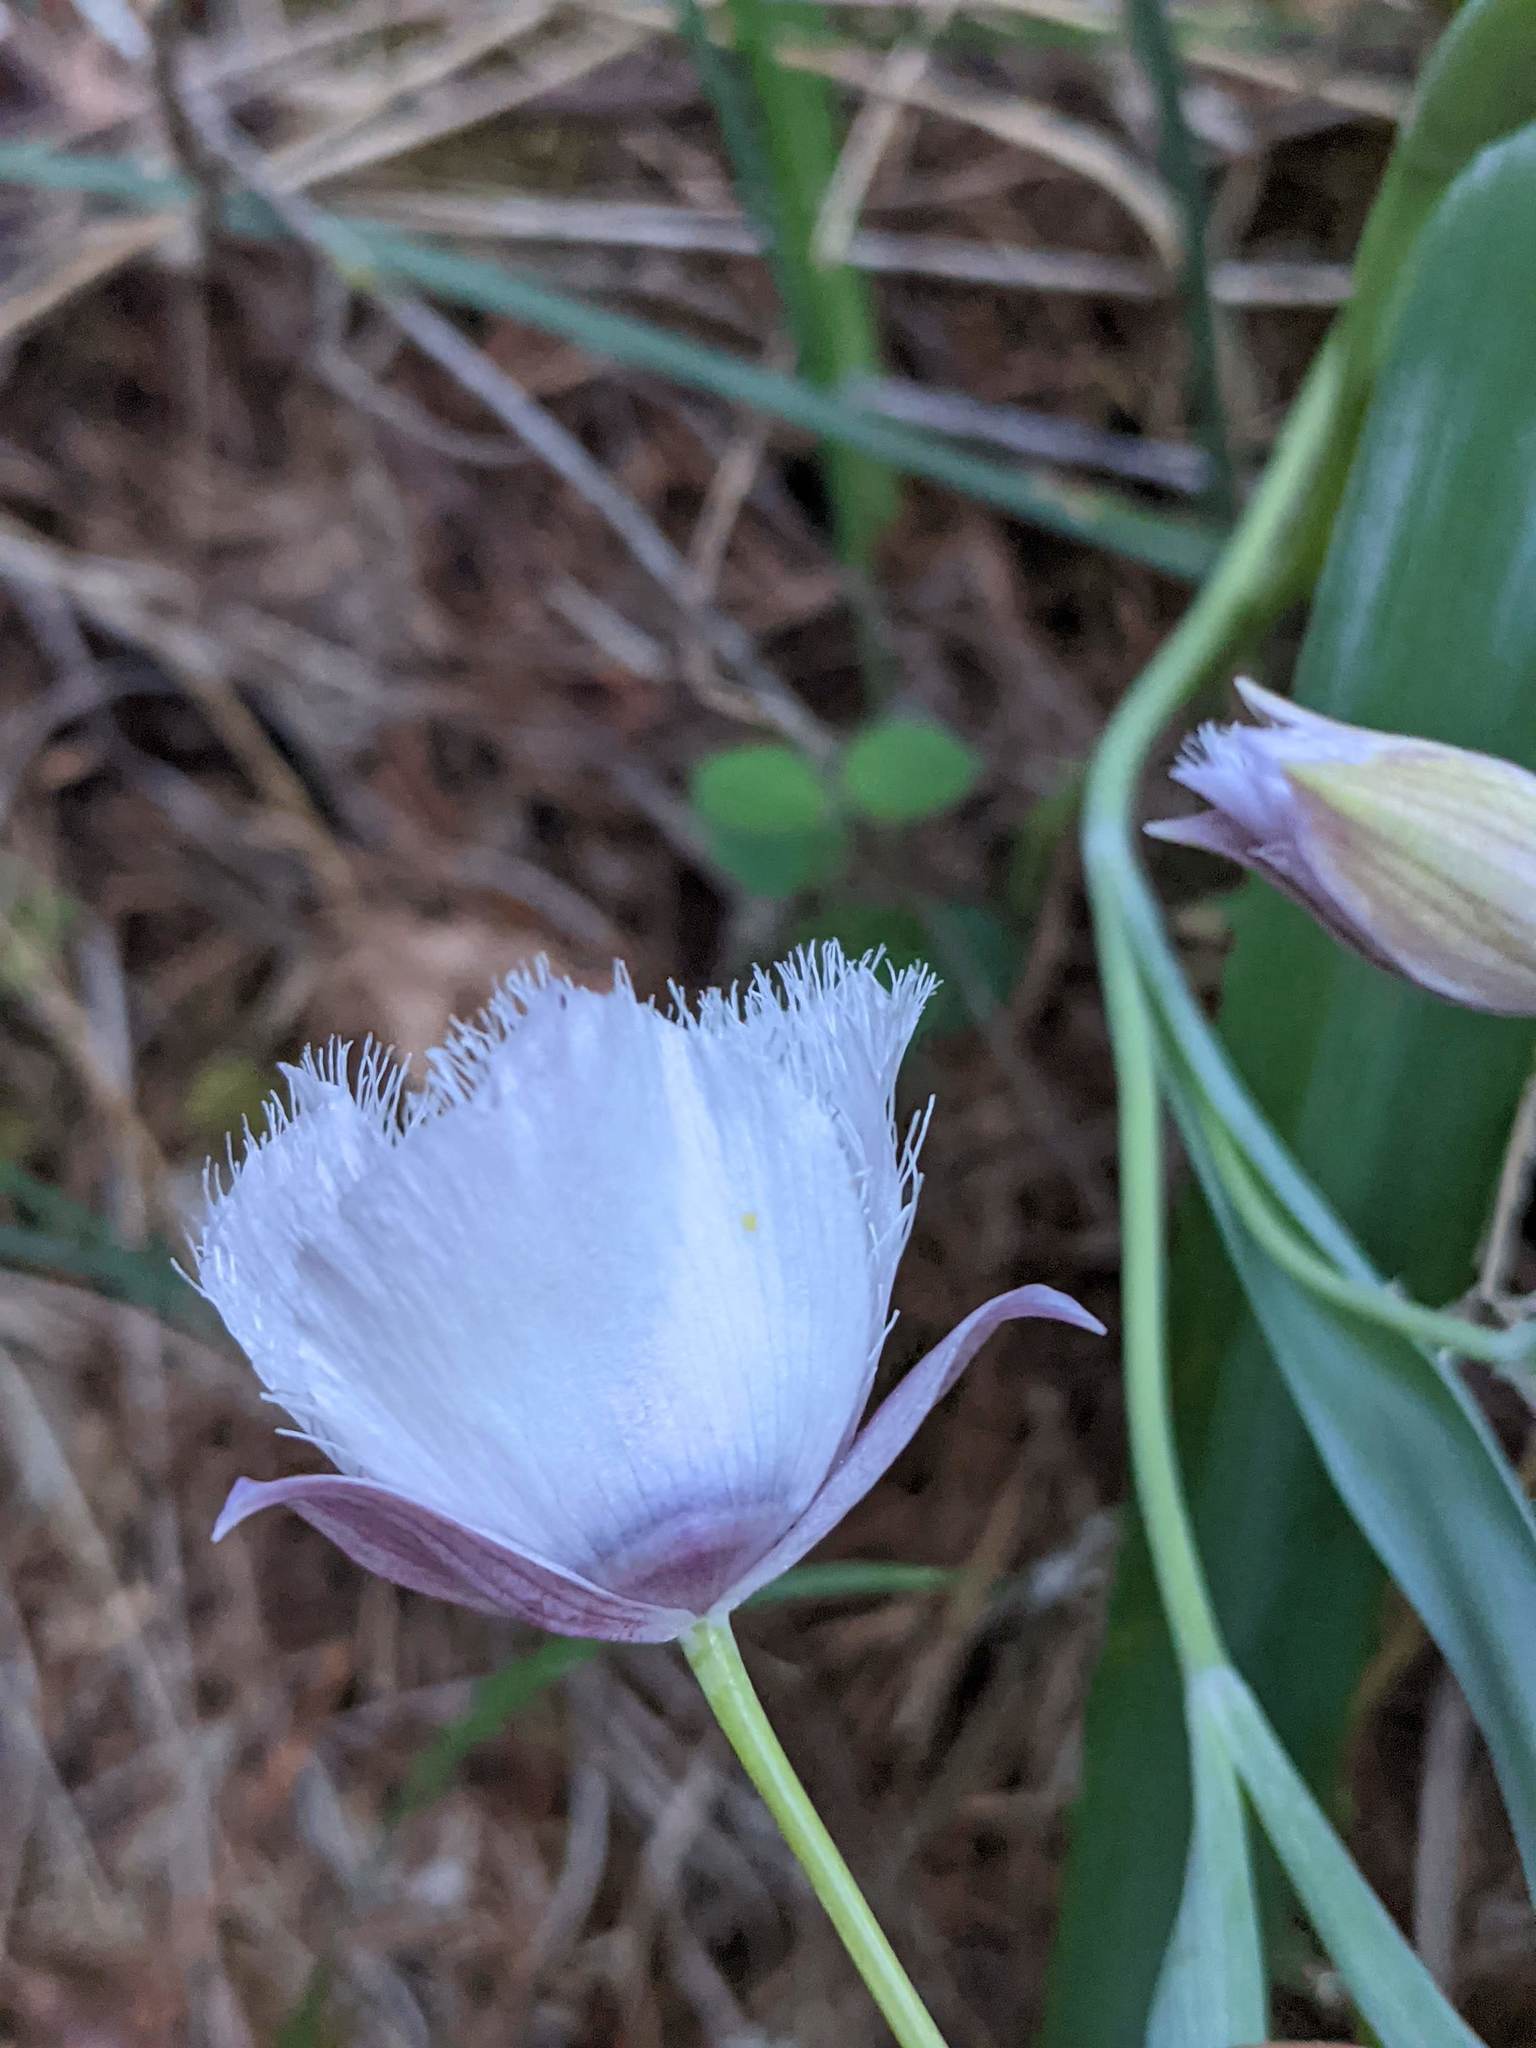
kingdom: Plantae
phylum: Tracheophyta
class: Liliopsida
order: Liliales
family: Liliaceae
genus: Calochortus
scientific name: Calochortus tolmiei
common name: Pussy-ears
